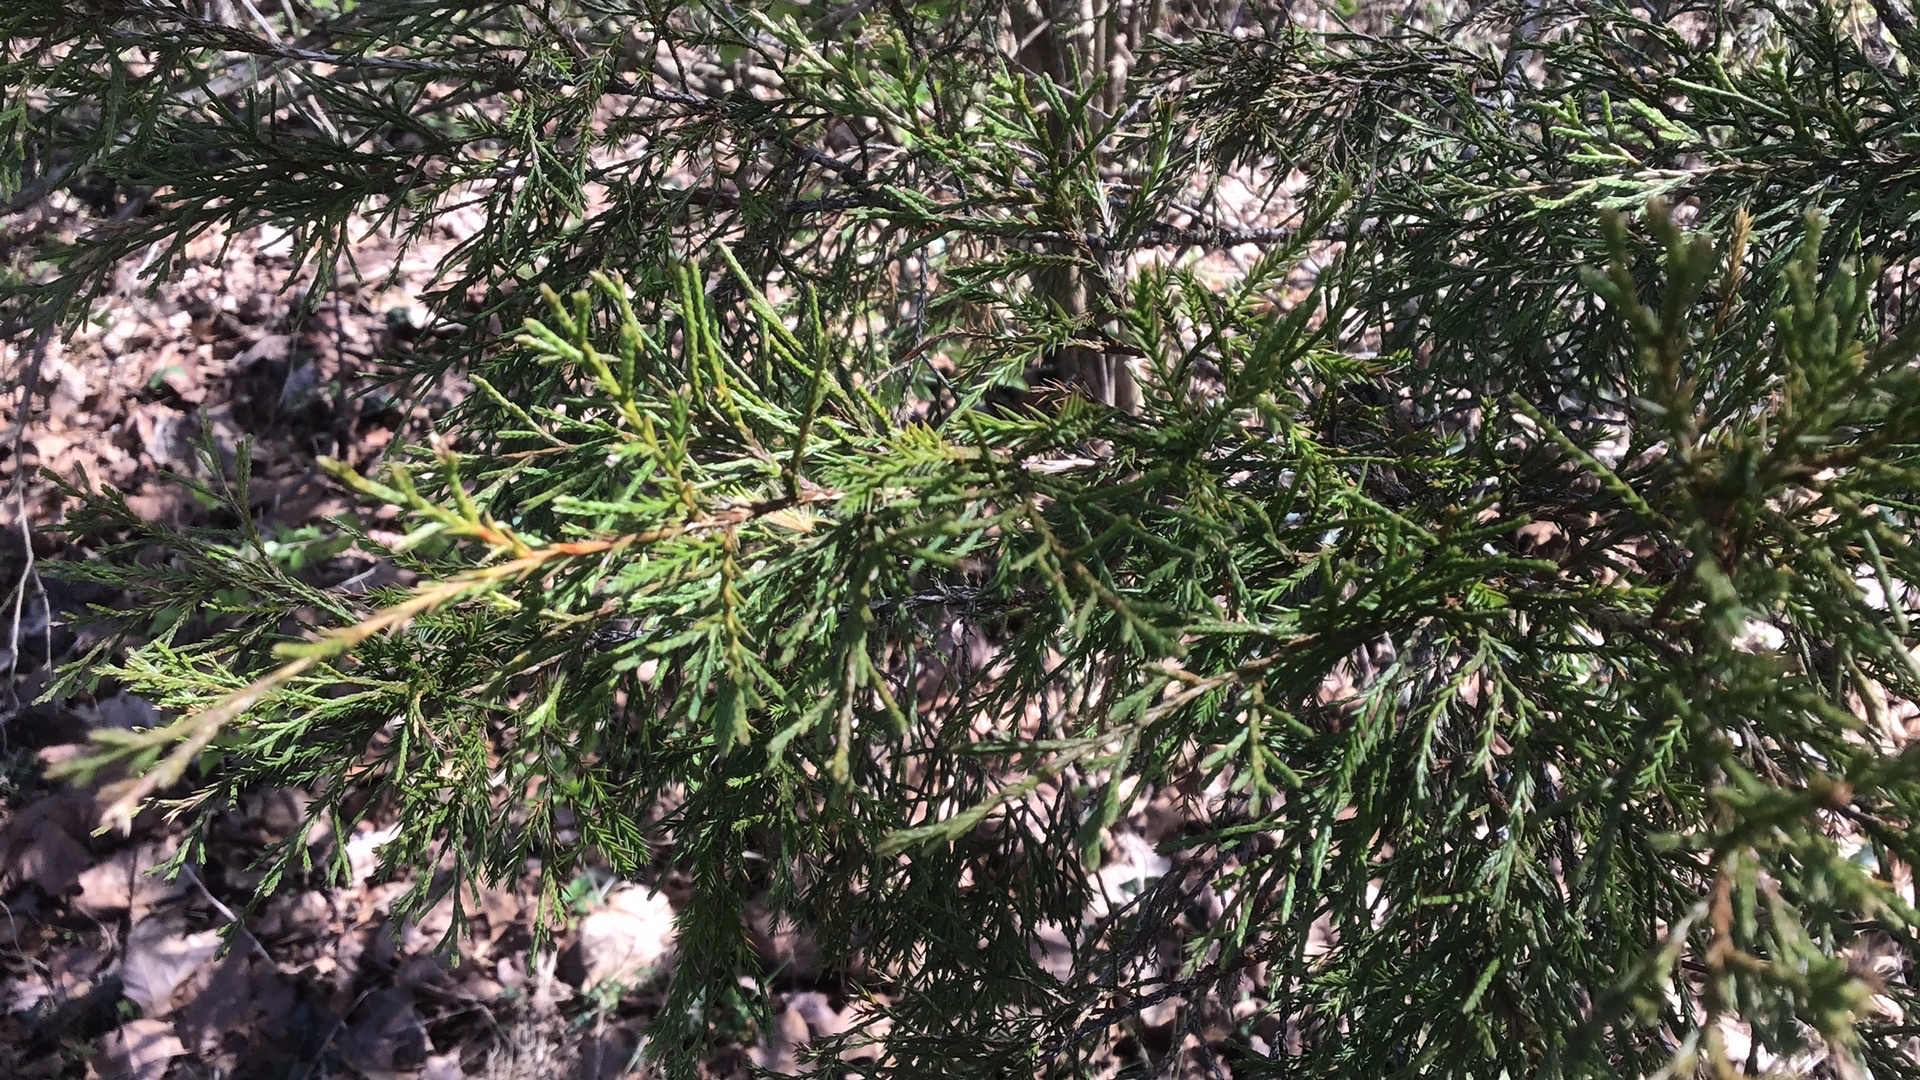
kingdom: Plantae
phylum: Tracheophyta
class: Pinopsida
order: Pinales
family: Cupressaceae
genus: Juniperus
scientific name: Juniperus virginiana
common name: Red juniper
